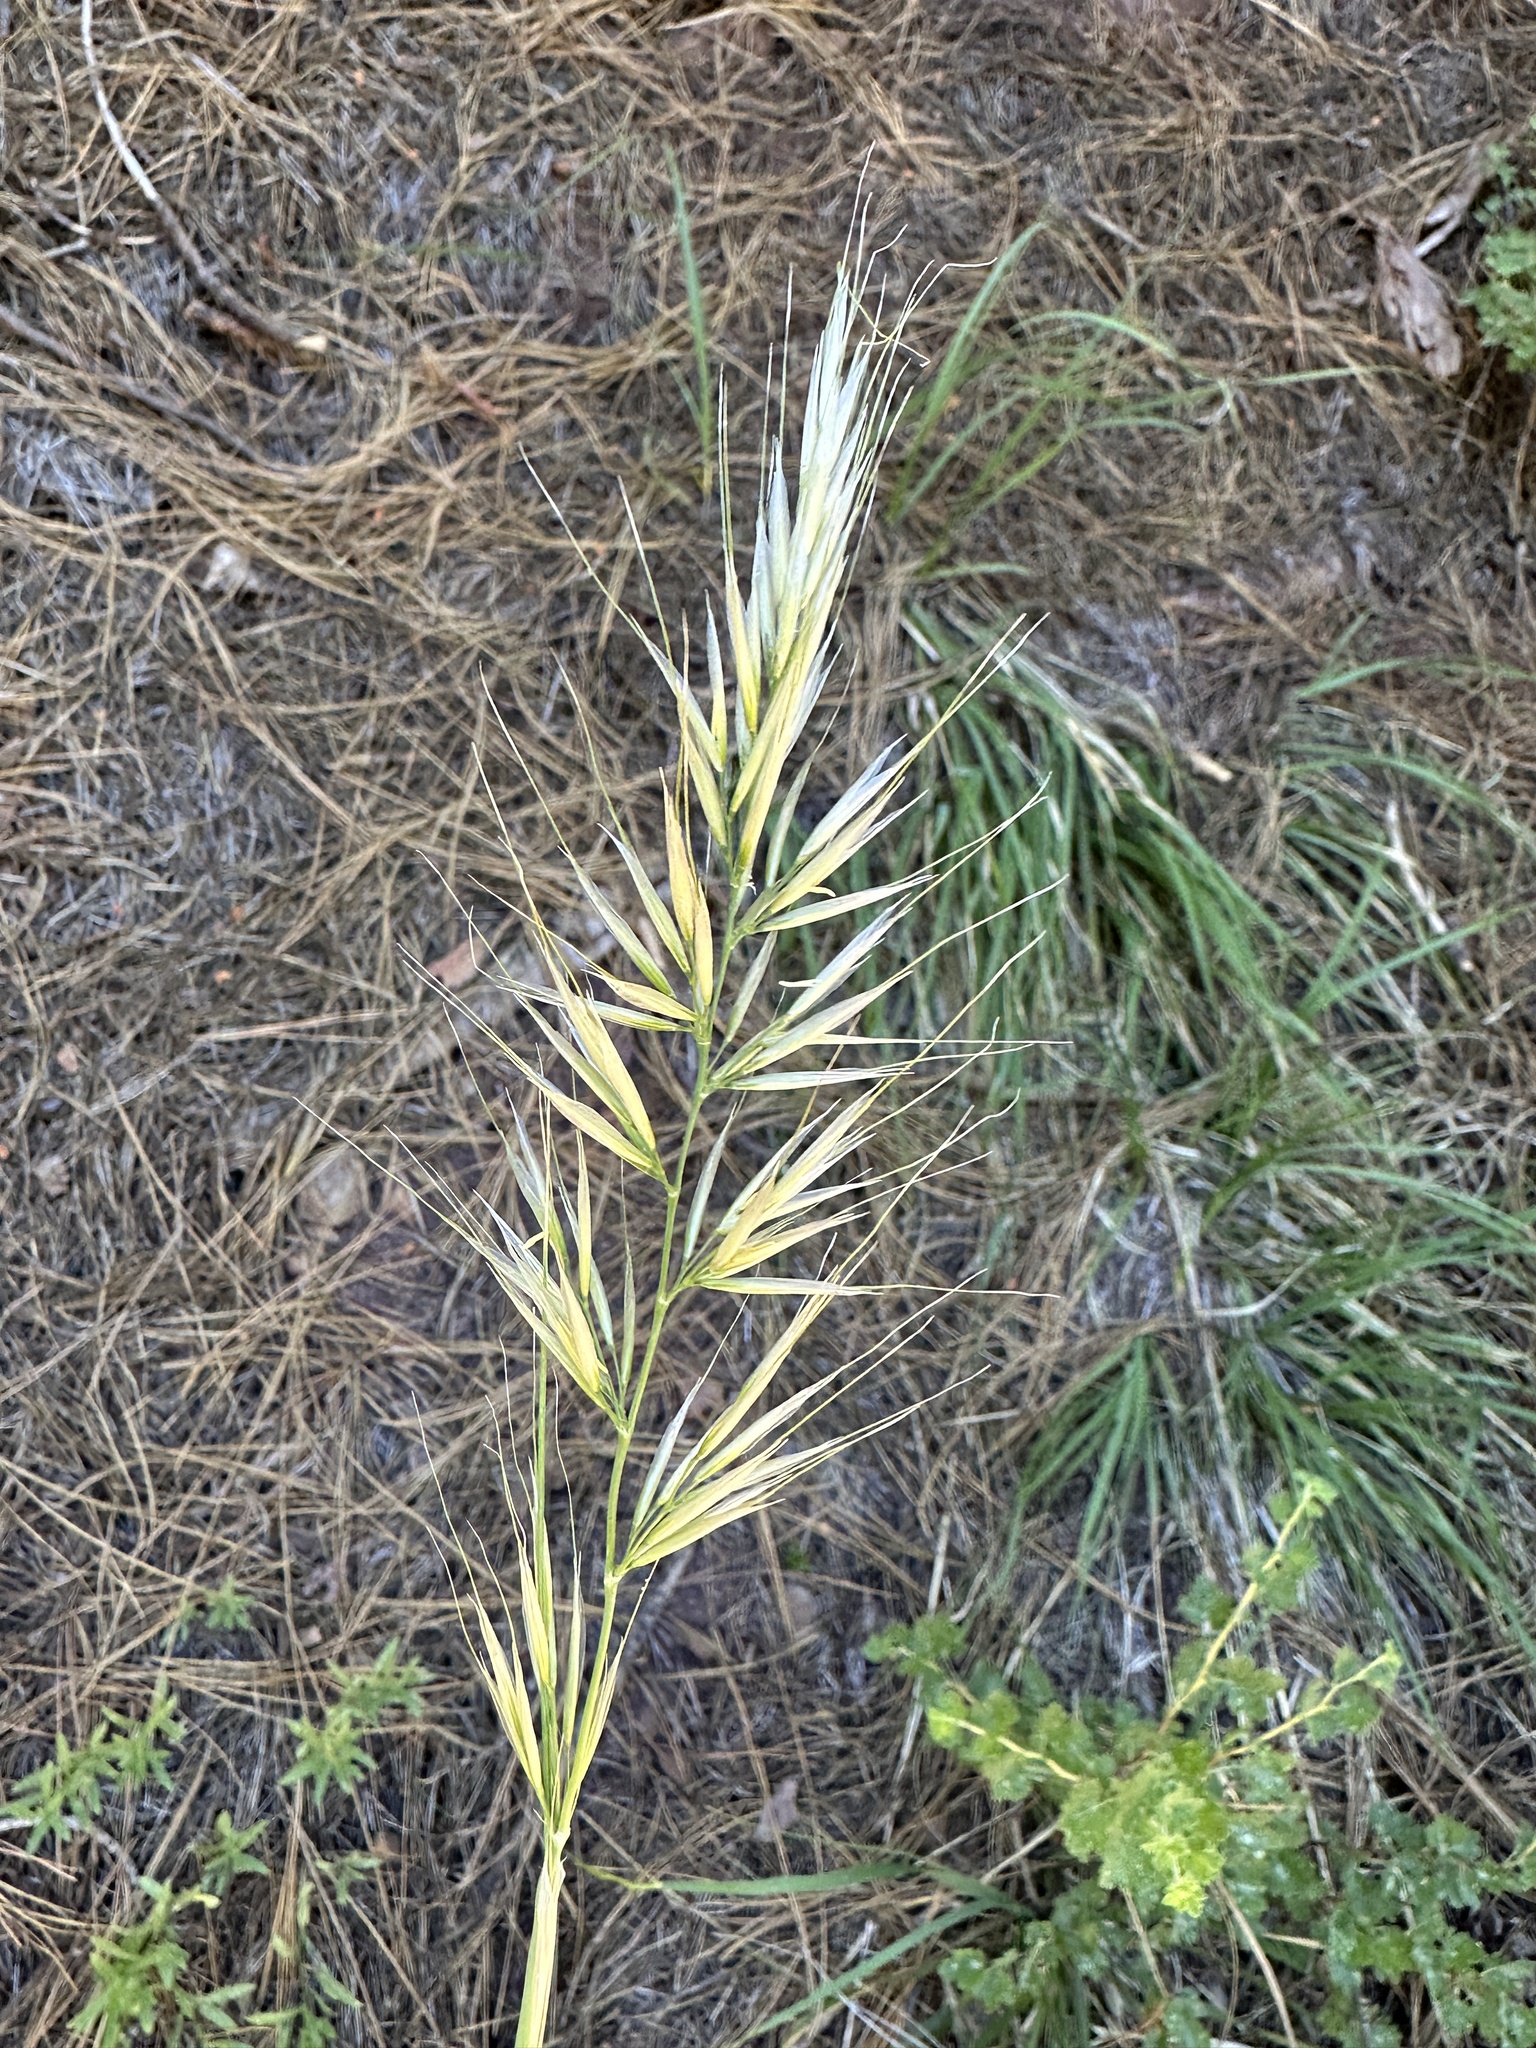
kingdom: Plantae
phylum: Tracheophyta
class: Liliopsida
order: Poales
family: Poaceae
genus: Barkworthia
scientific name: Barkworthia stillmanii
